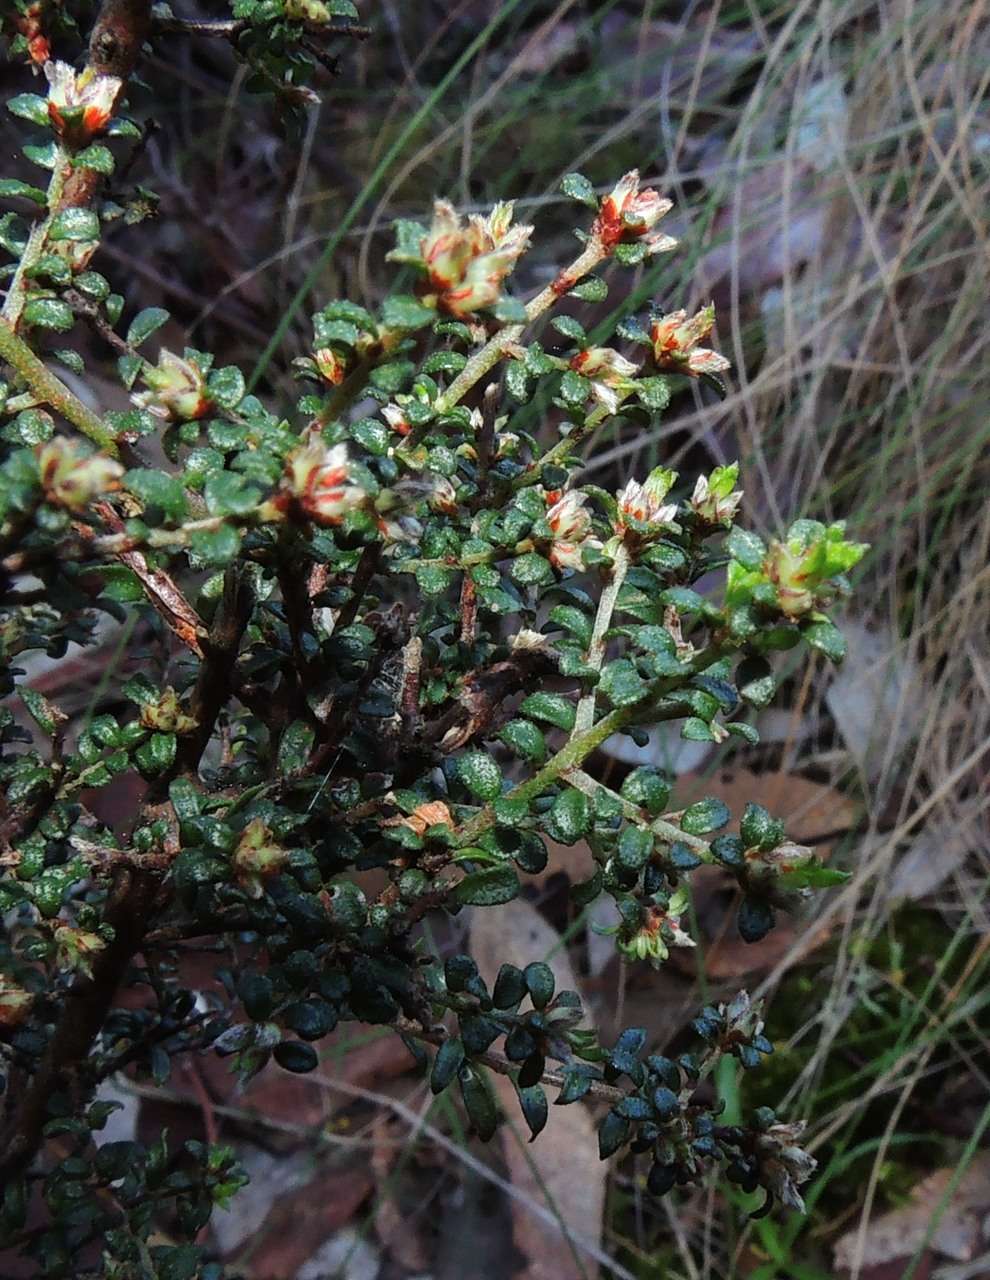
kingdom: Plantae
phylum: Tracheophyta
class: Magnoliopsida
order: Fabales
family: Fabaceae
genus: Pultenaea
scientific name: Pultenaea gunnii
